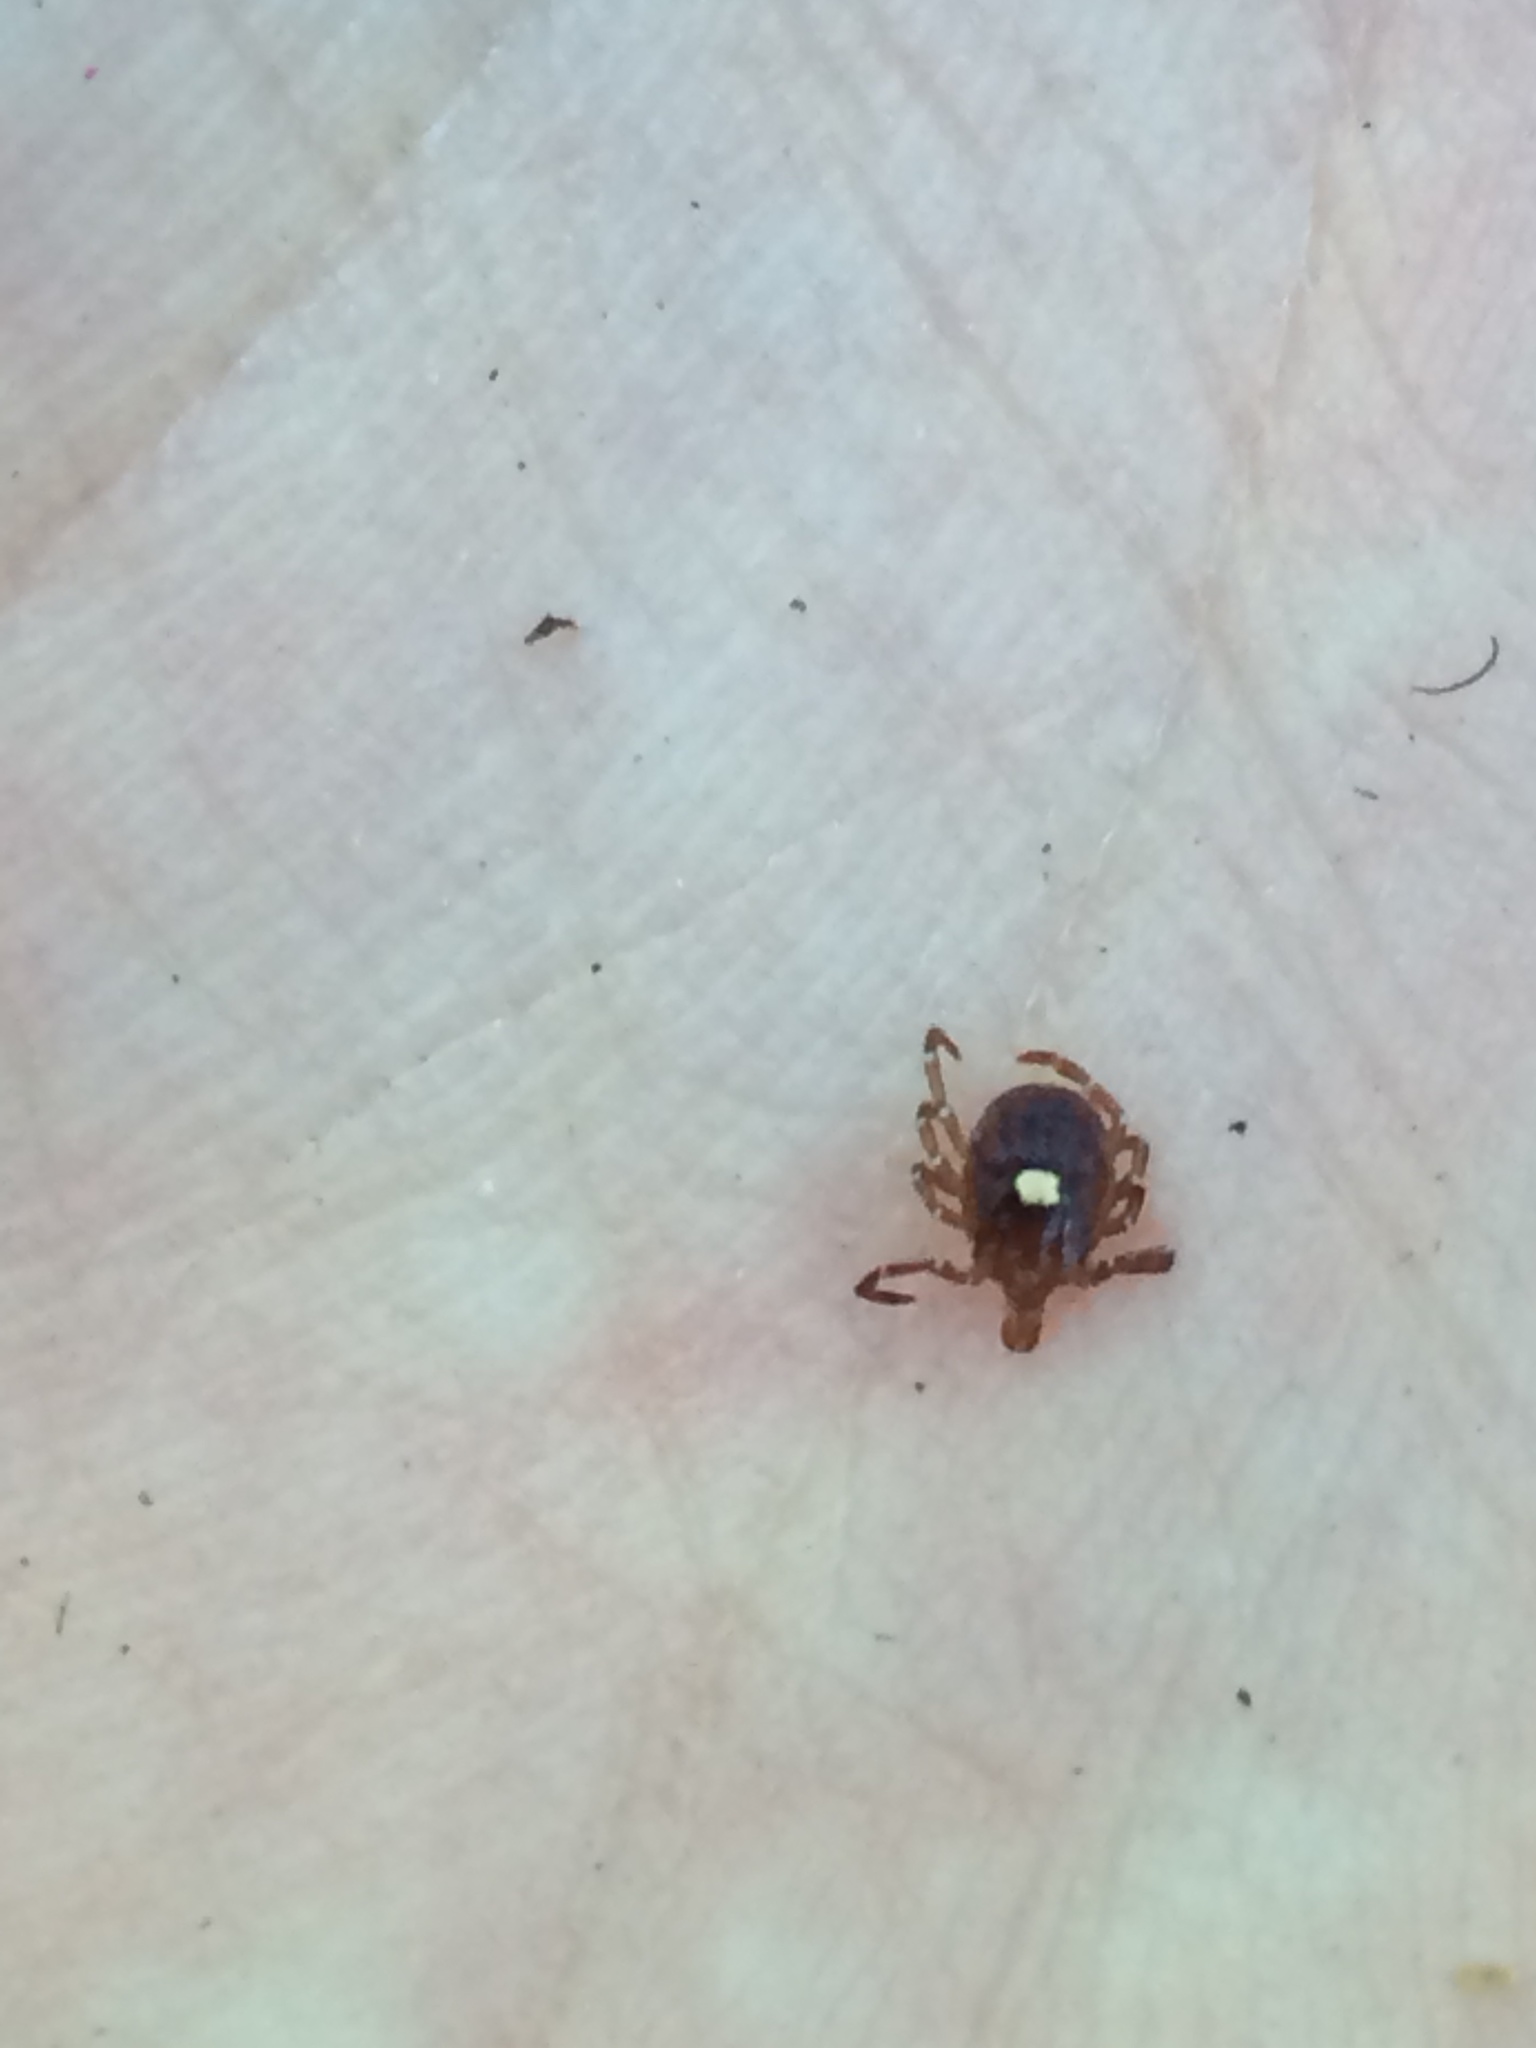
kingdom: Animalia
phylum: Arthropoda
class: Arachnida
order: Ixodida
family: Ixodidae
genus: Amblyomma
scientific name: Amblyomma americanum
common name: Lone star tick
